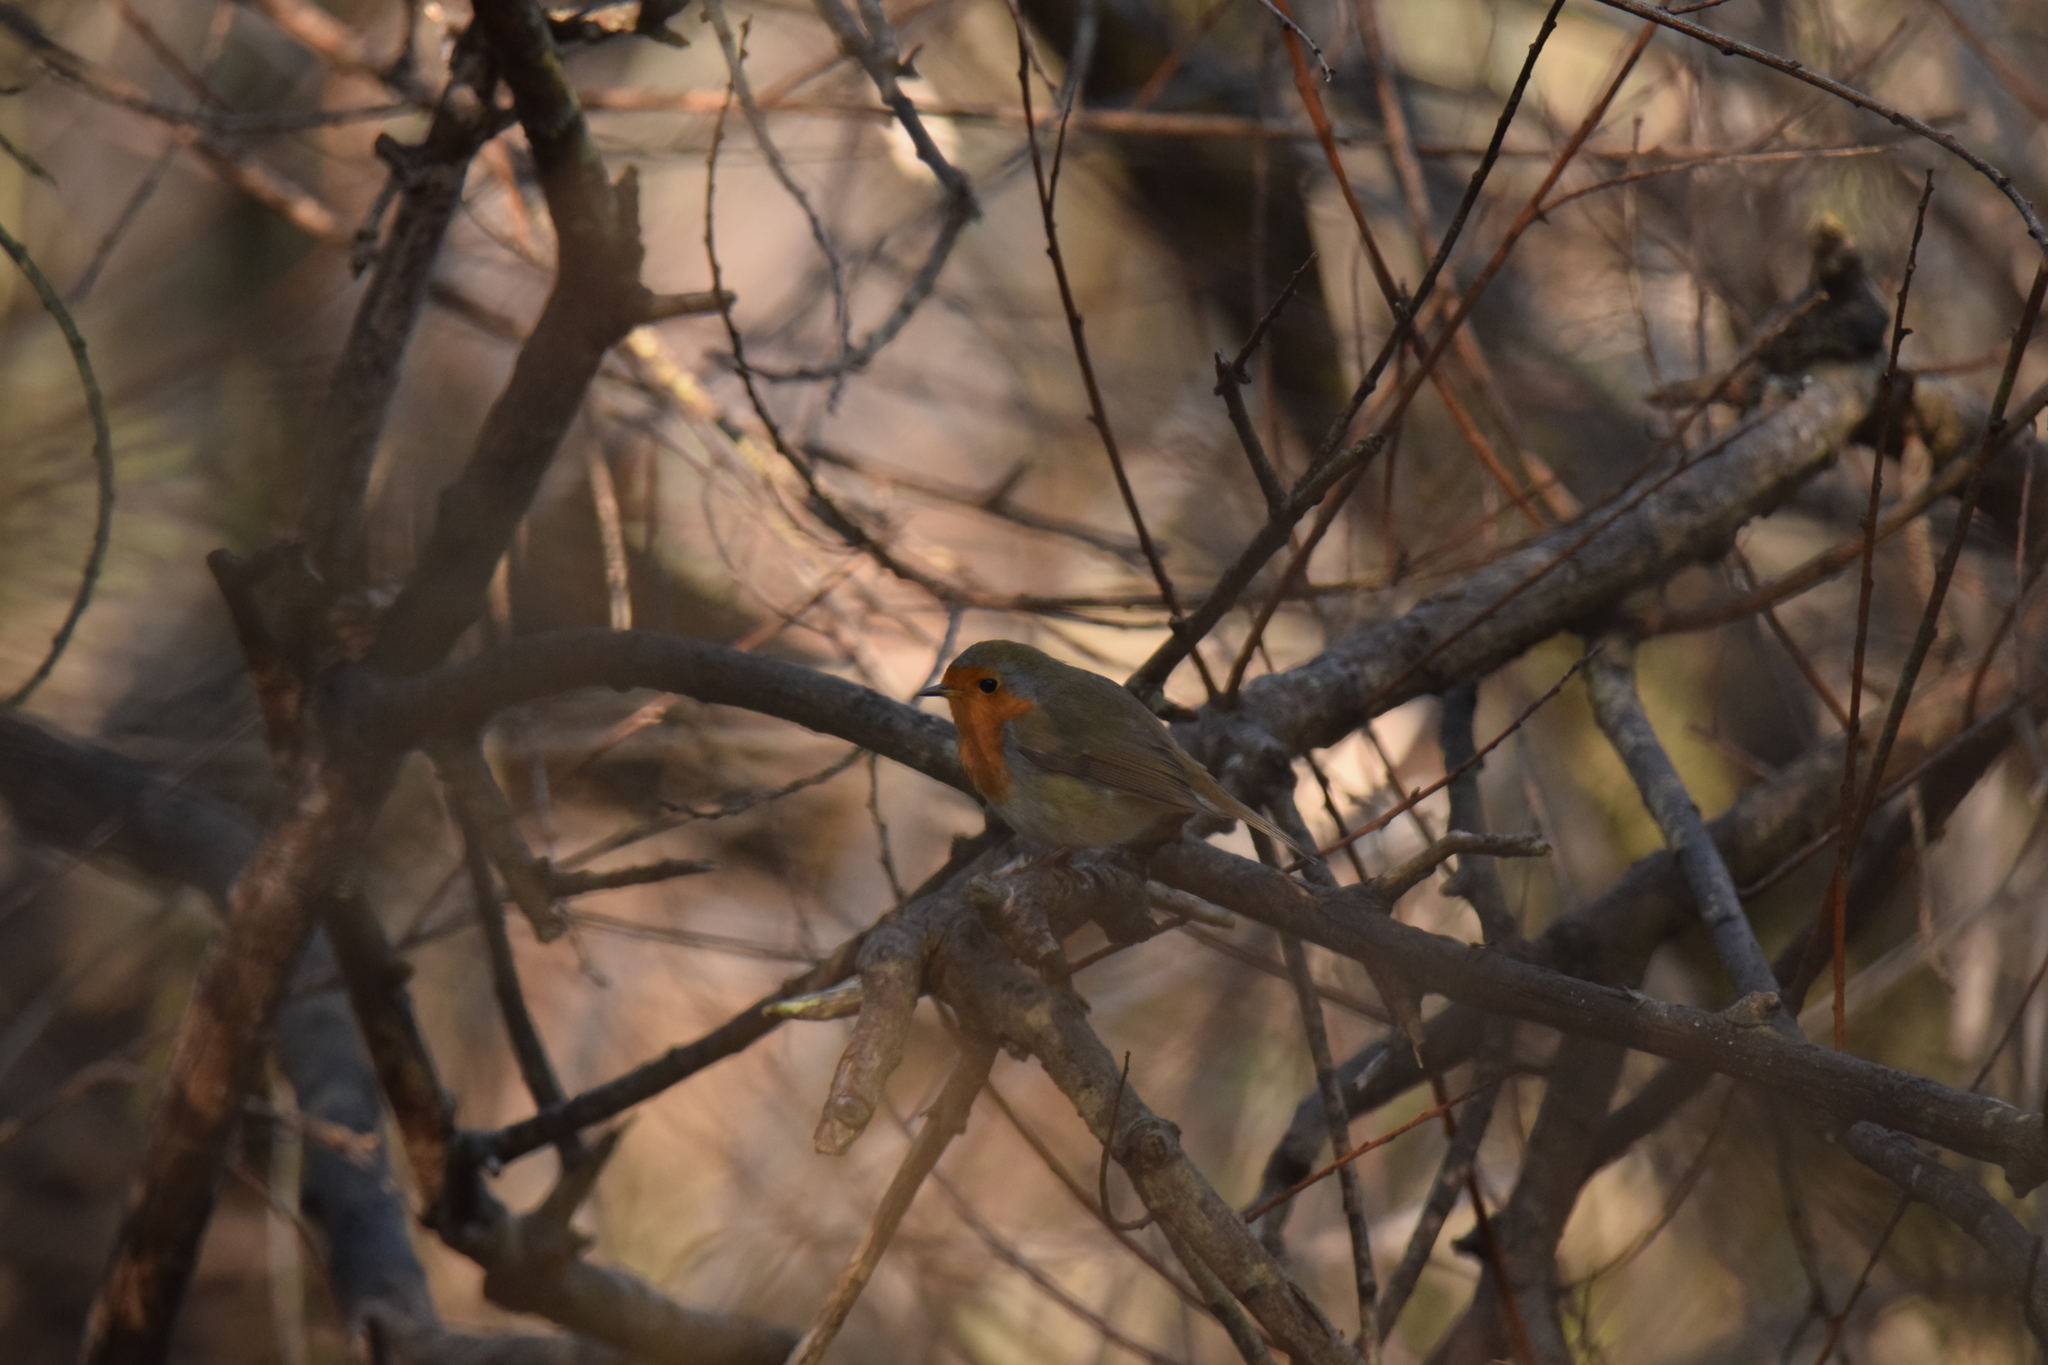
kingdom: Animalia
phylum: Chordata
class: Aves
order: Passeriformes
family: Muscicapidae
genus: Erithacus
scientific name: Erithacus rubecula
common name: European robin
